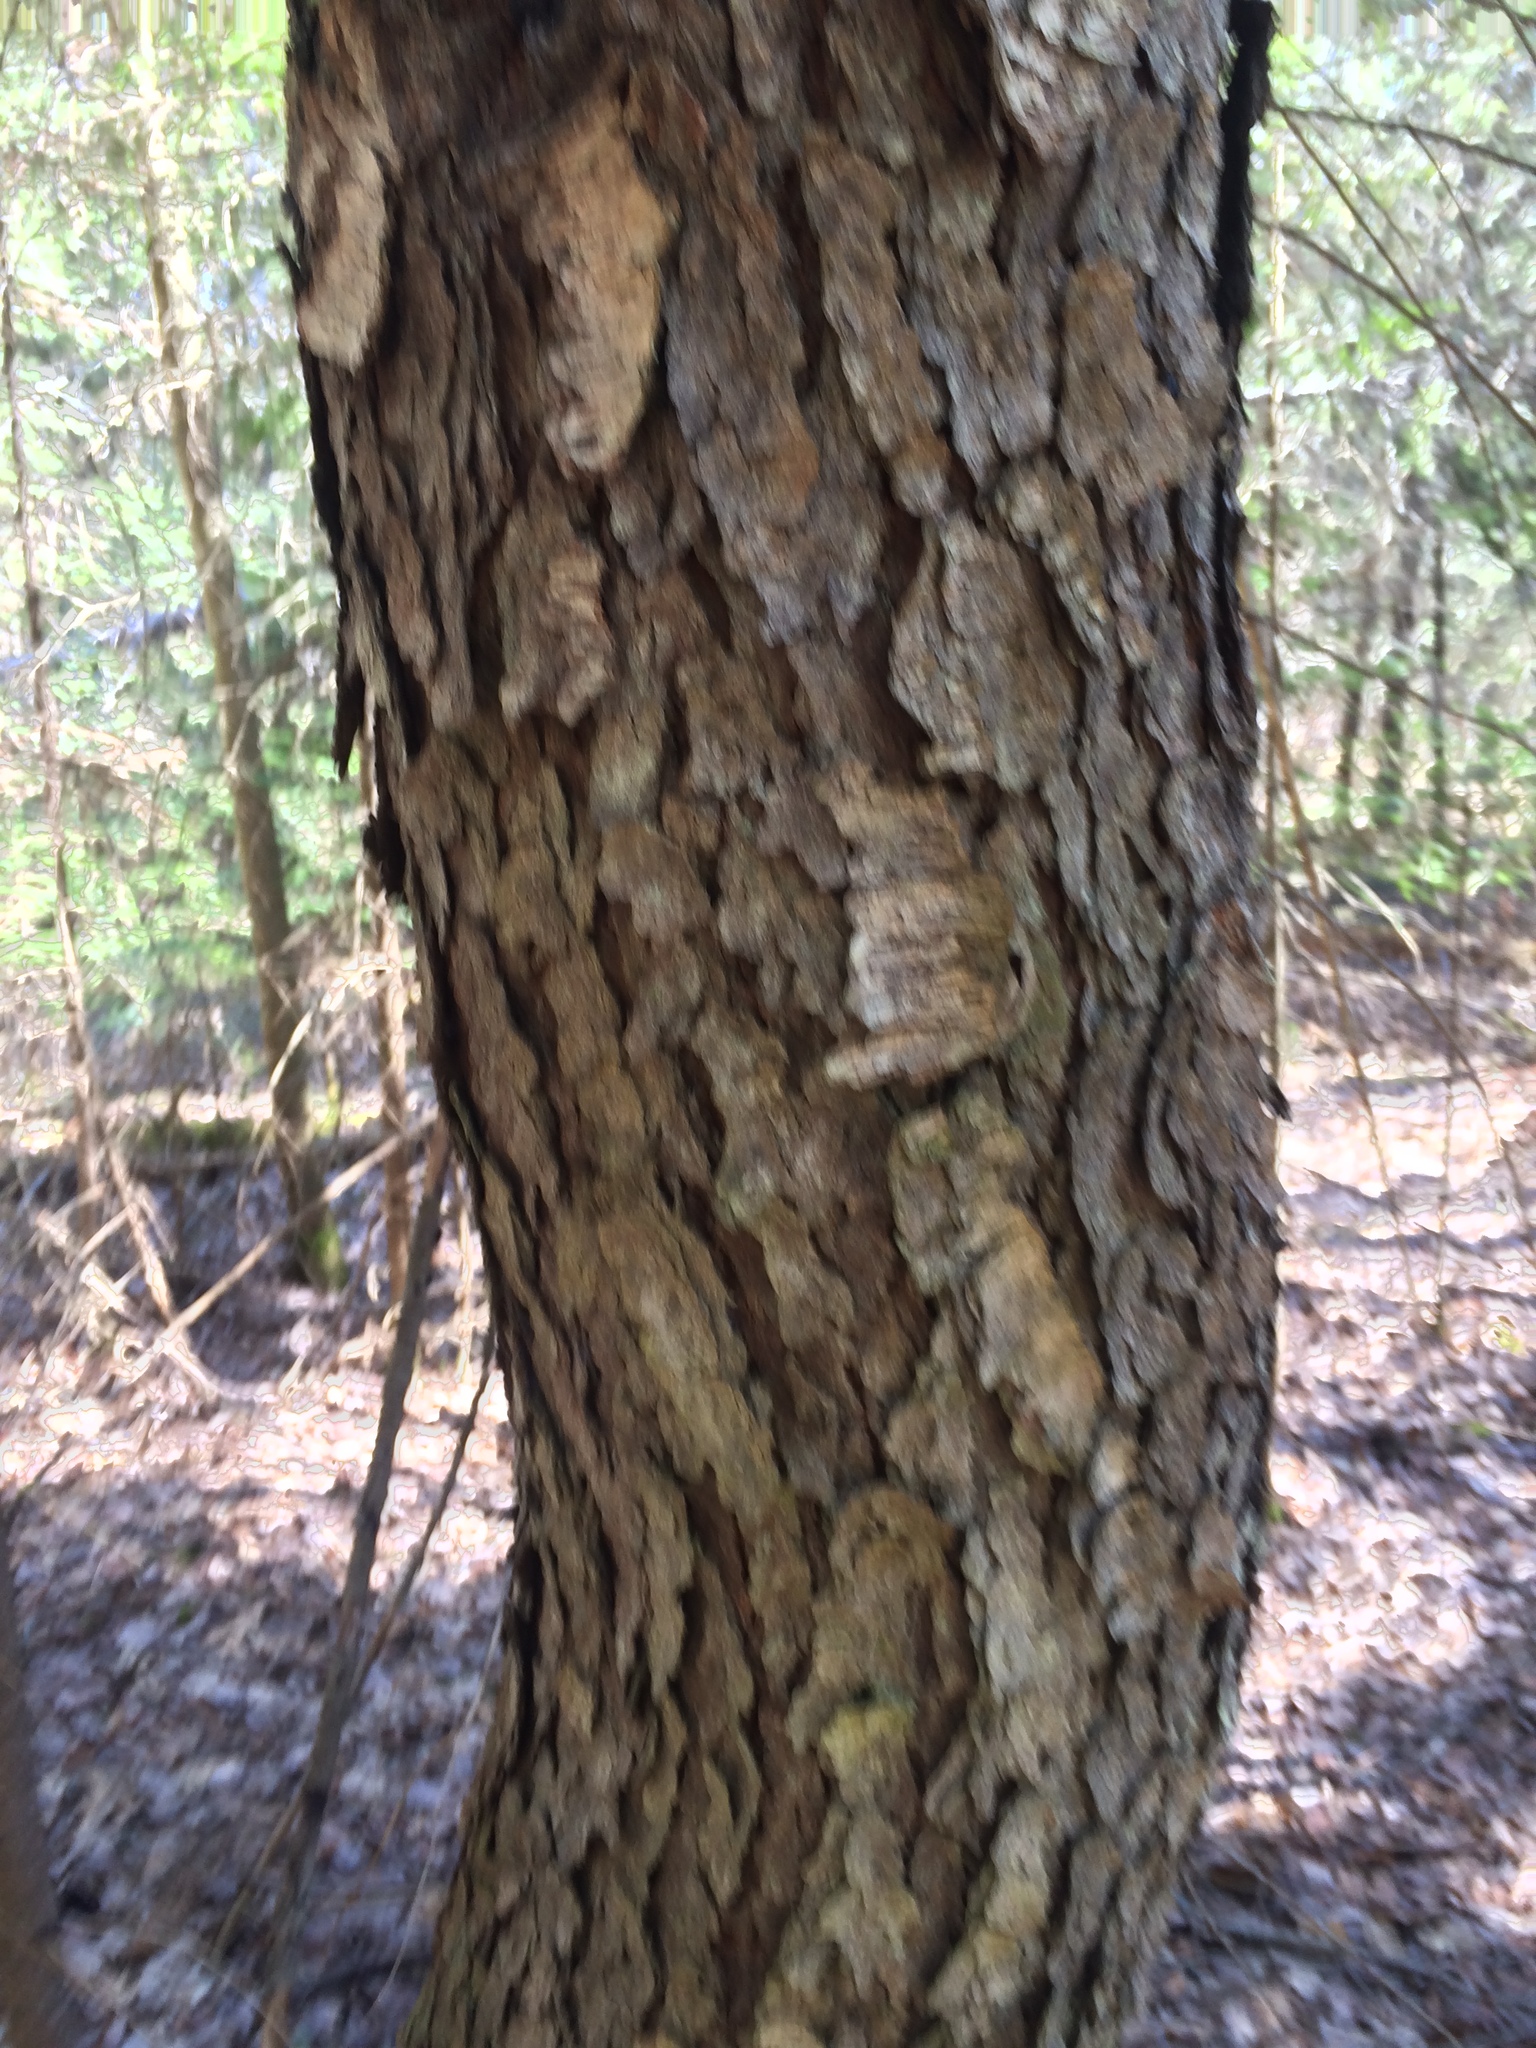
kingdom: Plantae
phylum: Tracheophyta
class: Magnoliopsida
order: Rosales
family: Rosaceae
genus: Prunus
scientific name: Prunus serotina
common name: Black cherry
